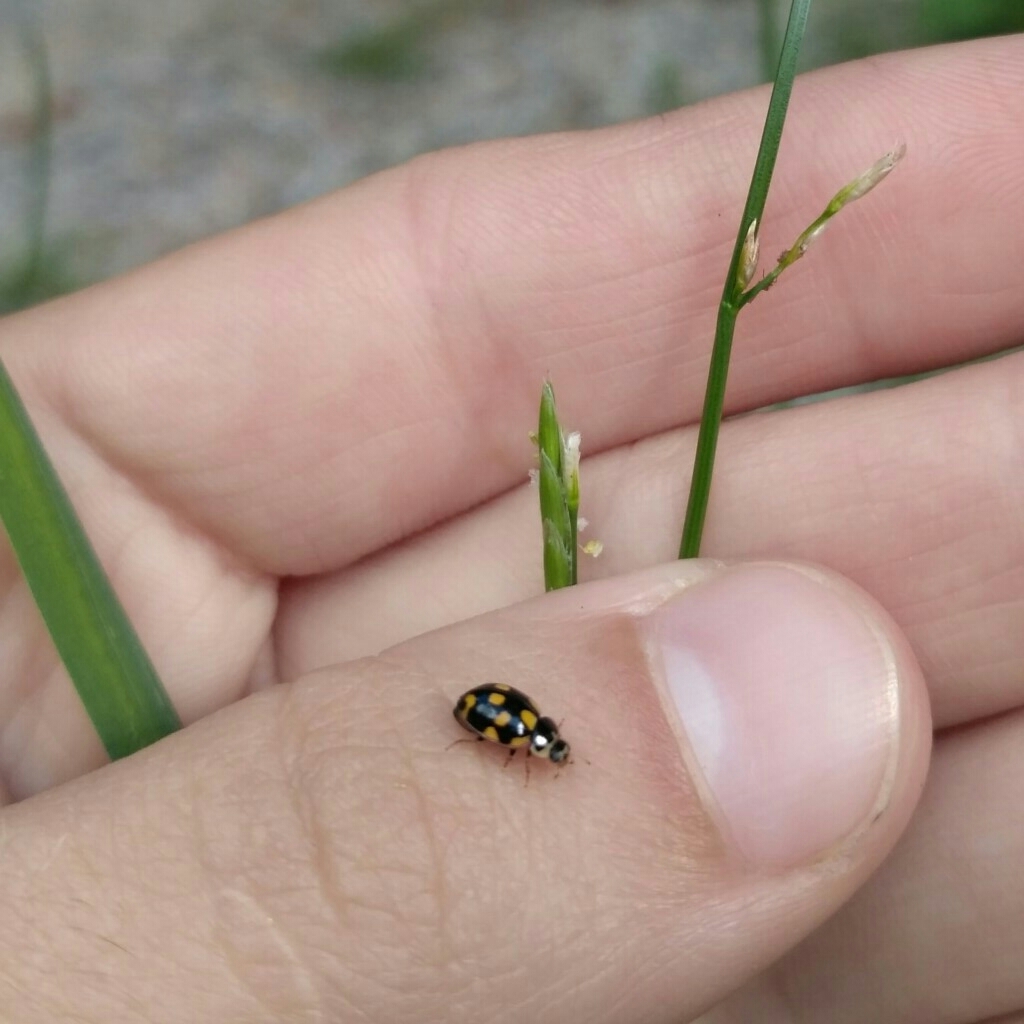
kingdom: Animalia
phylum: Arthropoda
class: Insecta
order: Coleoptera
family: Coccinellidae
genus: Propylaea
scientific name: Propylaea quatuordecimpunctata
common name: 14-spotted ladybird beetle
